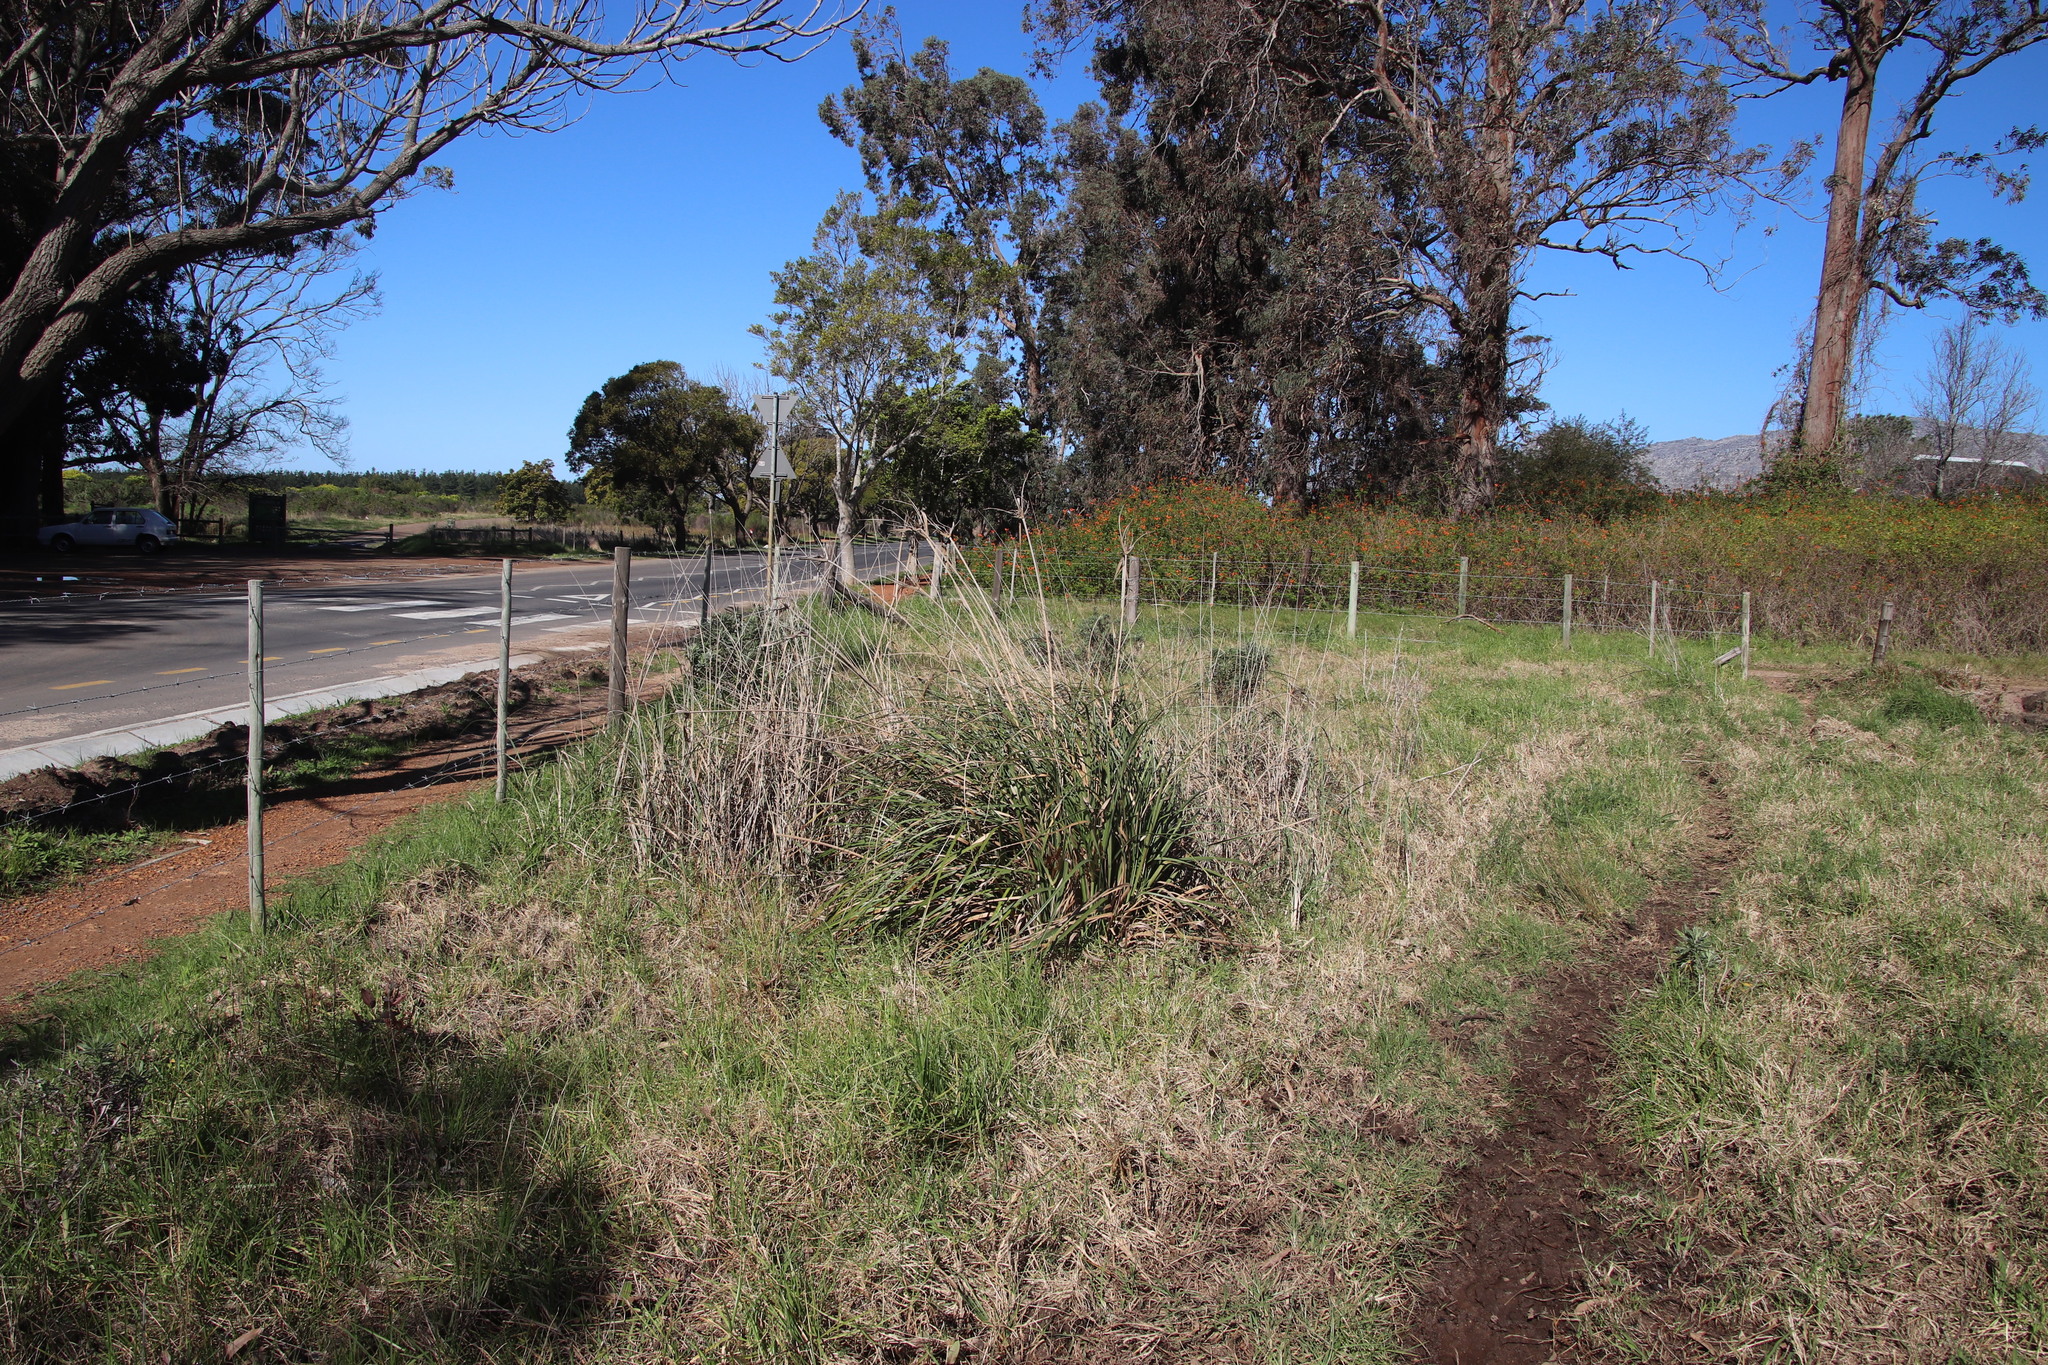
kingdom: Plantae
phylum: Tracheophyta
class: Liliopsida
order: Poales
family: Cyperaceae
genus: Cyperus
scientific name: Cyperus thunbergii
